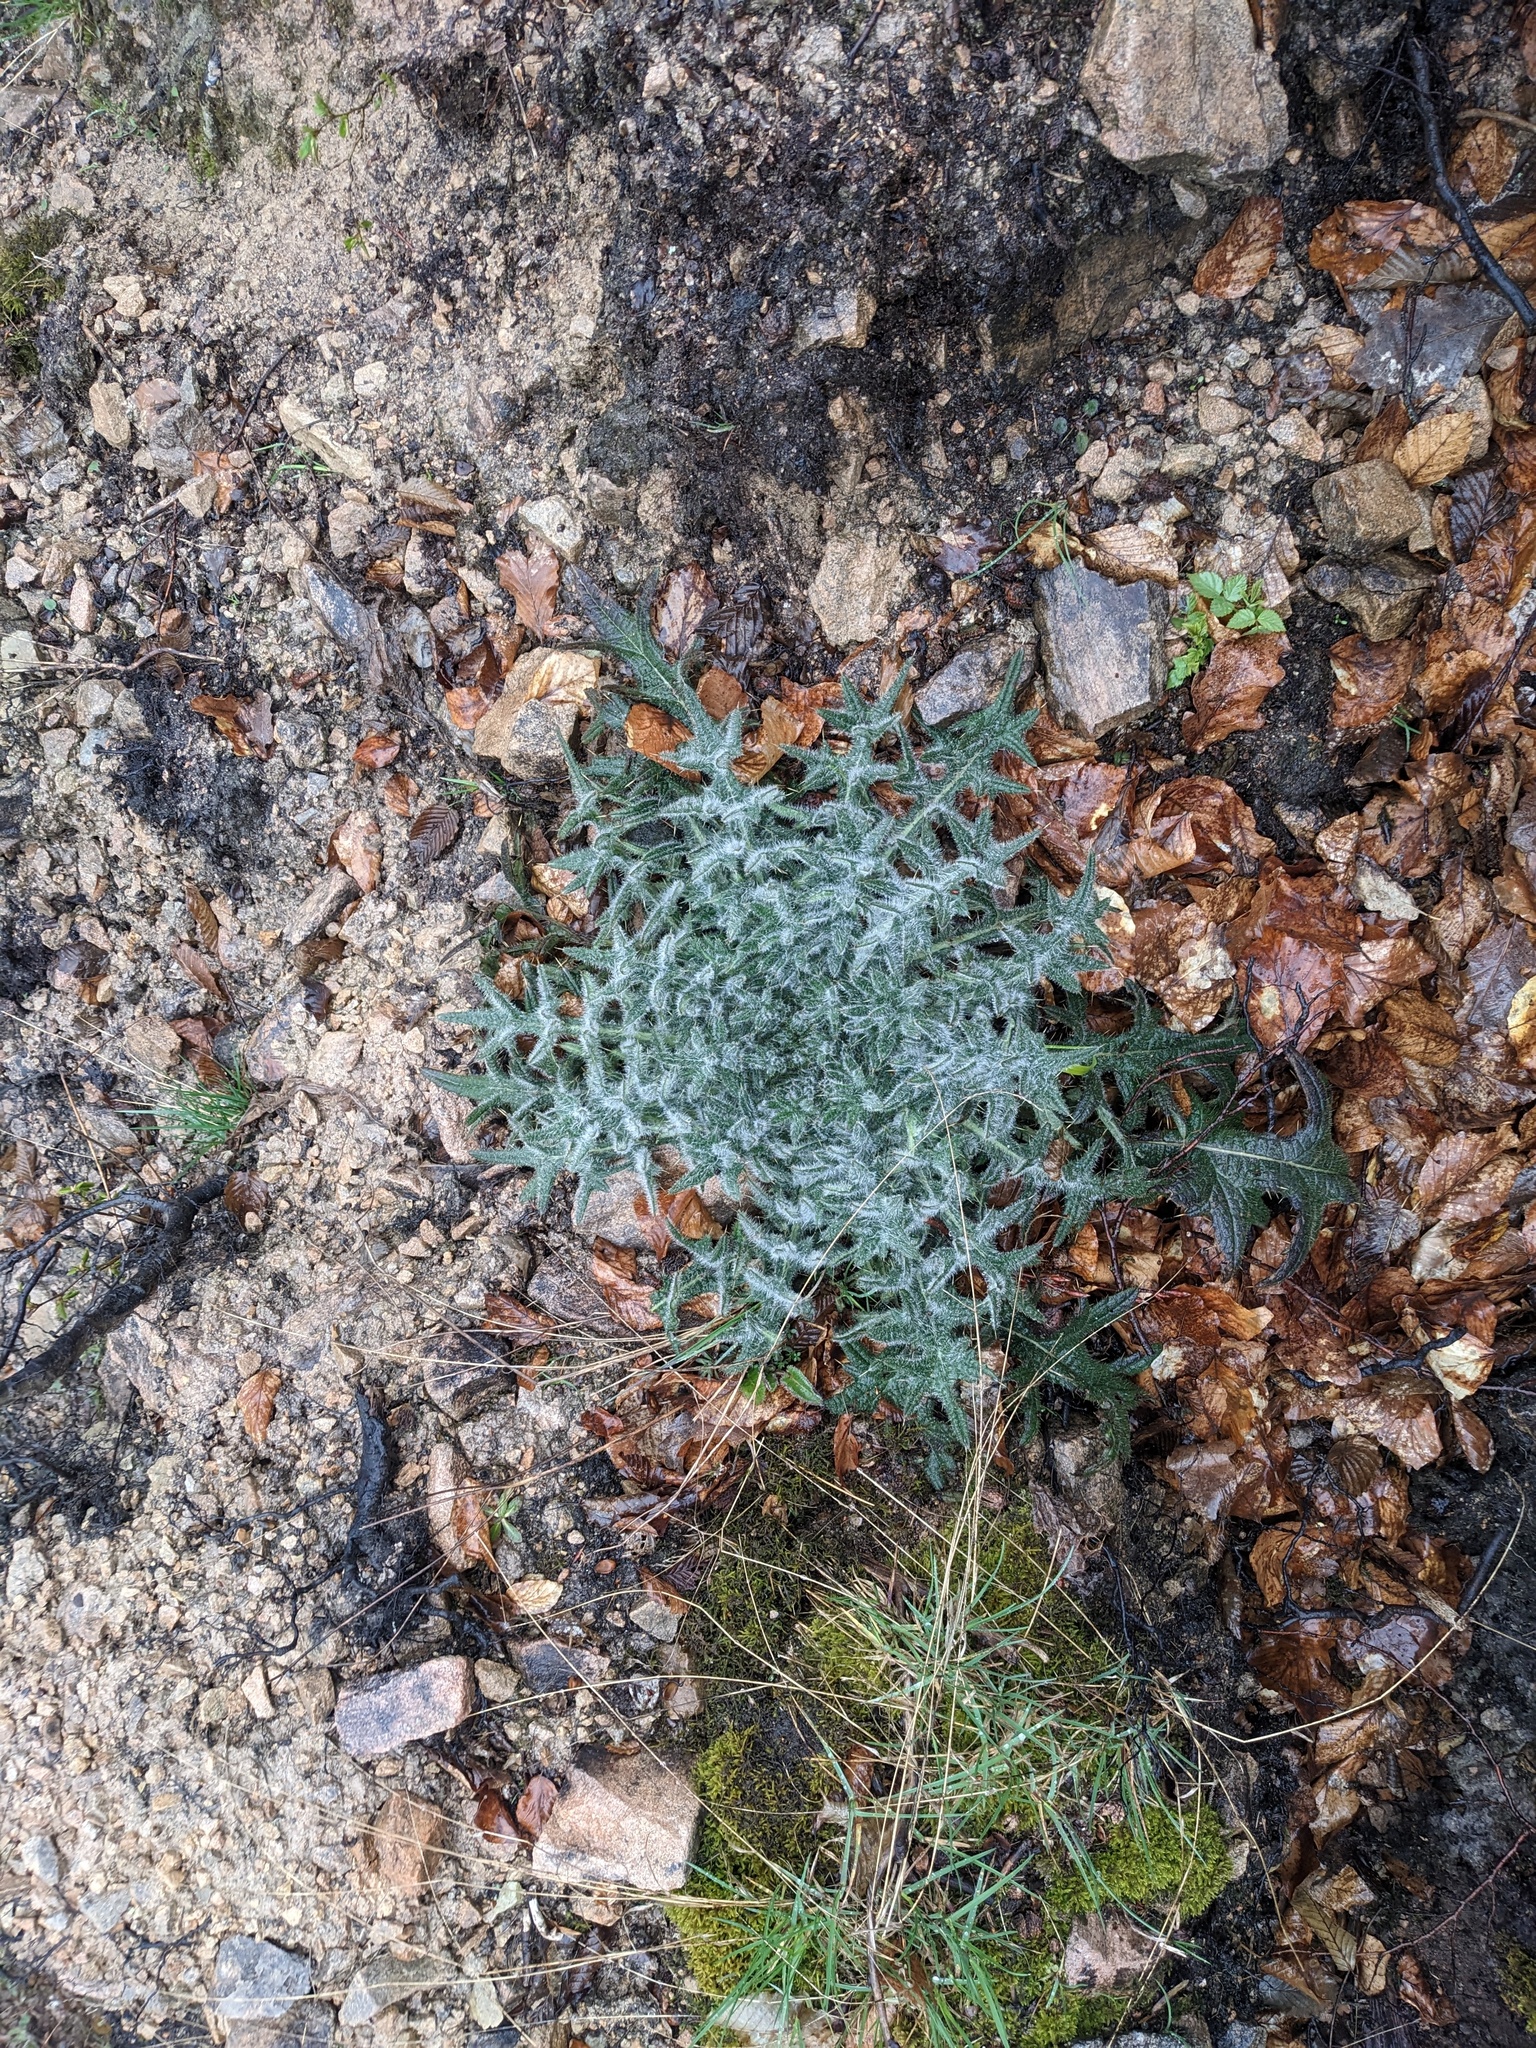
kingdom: Plantae
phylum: Tracheophyta
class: Magnoliopsida
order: Asterales
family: Asteraceae
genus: Cirsium
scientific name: Cirsium vulgare
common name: Bull thistle
